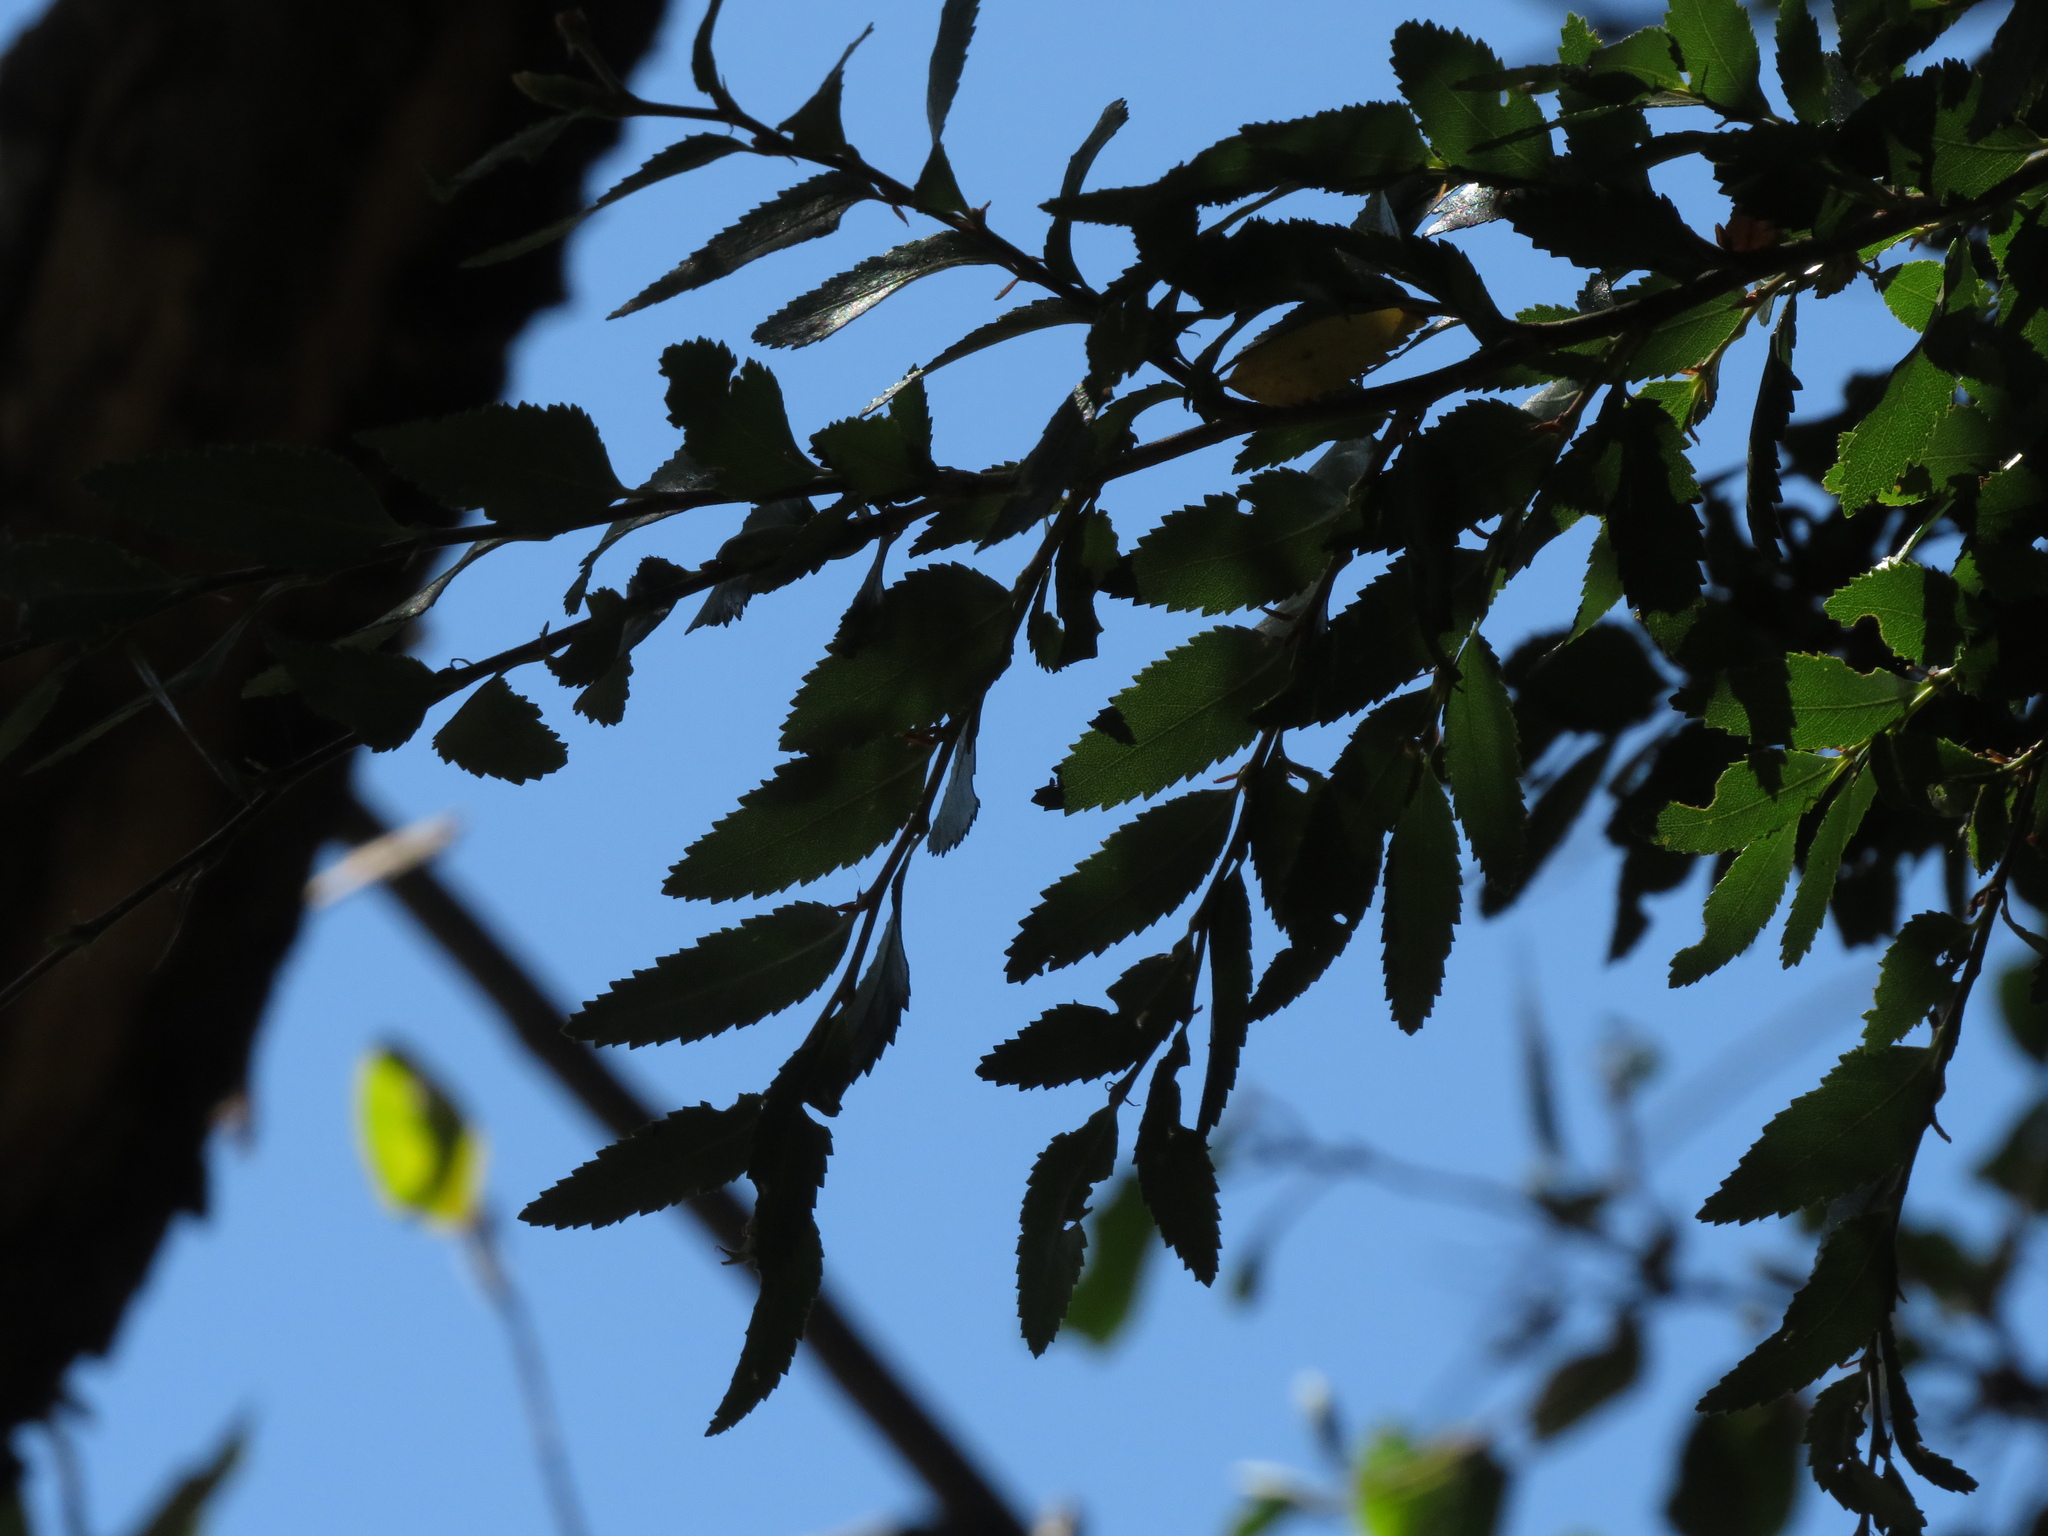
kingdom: Plantae
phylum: Tracheophyta
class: Magnoliopsida
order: Fagales
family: Nothofagaceae
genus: Nothofagus
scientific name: Nothofagus dombeyi
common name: Coigue
